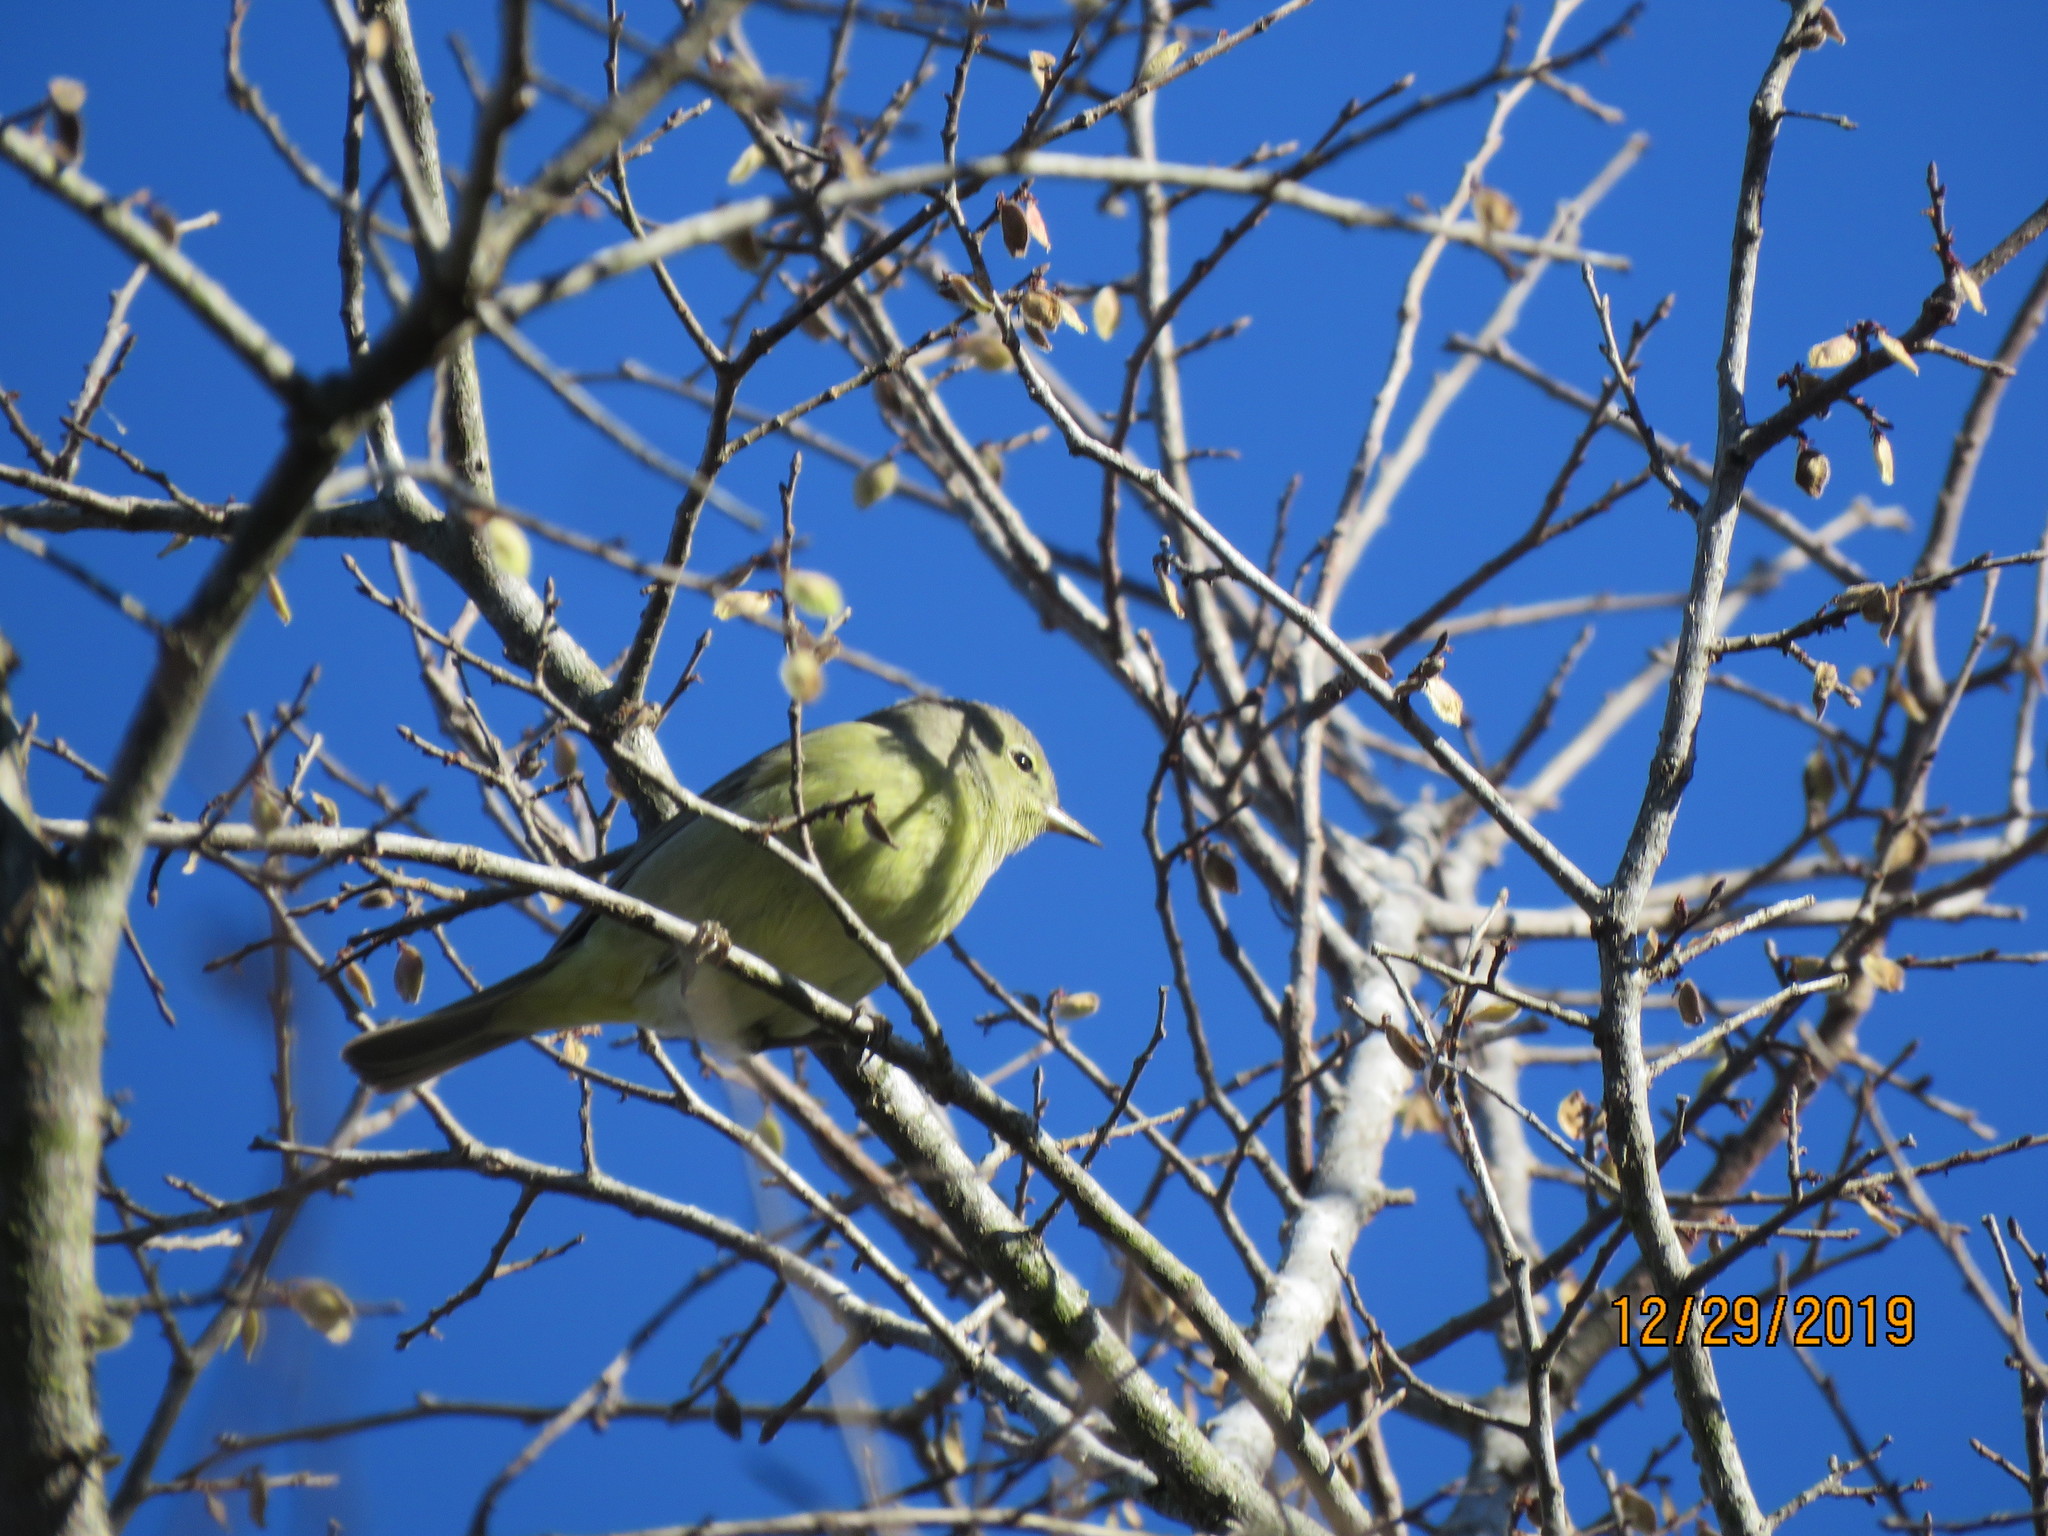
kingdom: Animalia
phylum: Chordata
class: Aves
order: Passeriformes
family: Parulidae
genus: Leiothlypis
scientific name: Leiothlypis celata
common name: Orange-crowned warbler
